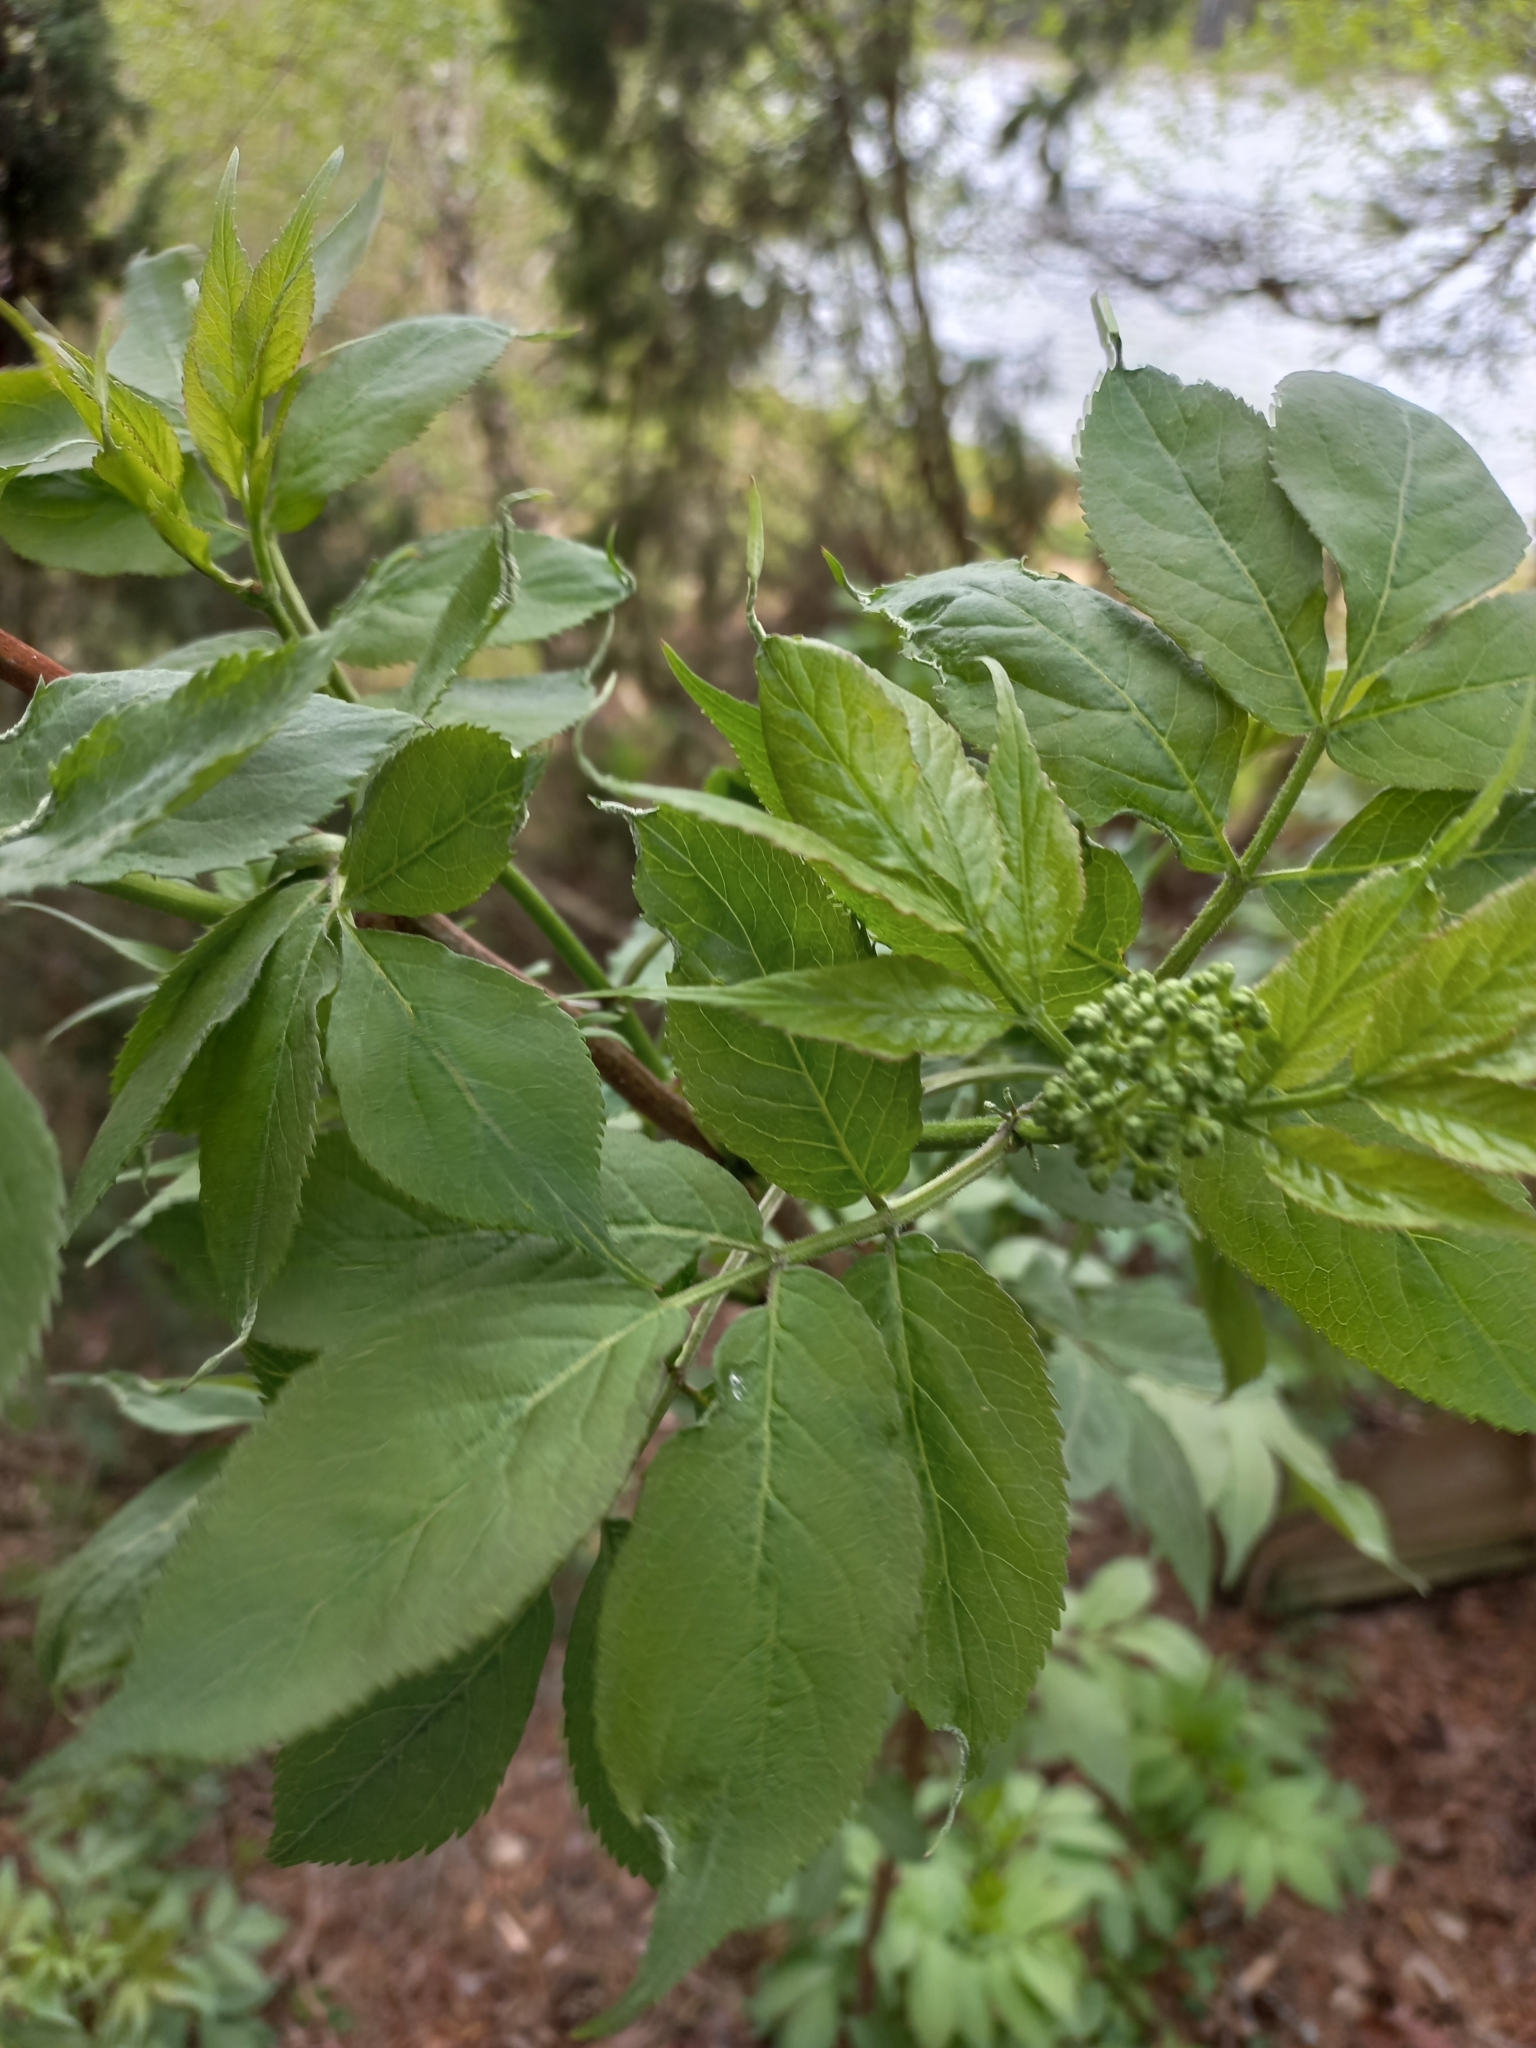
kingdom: Plantae
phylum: Tracheophyta
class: Magnoliopsida
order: Dipsacales
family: Viburnaceae
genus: Sambucus
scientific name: Sambucus racemosa
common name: Red-berried elder
